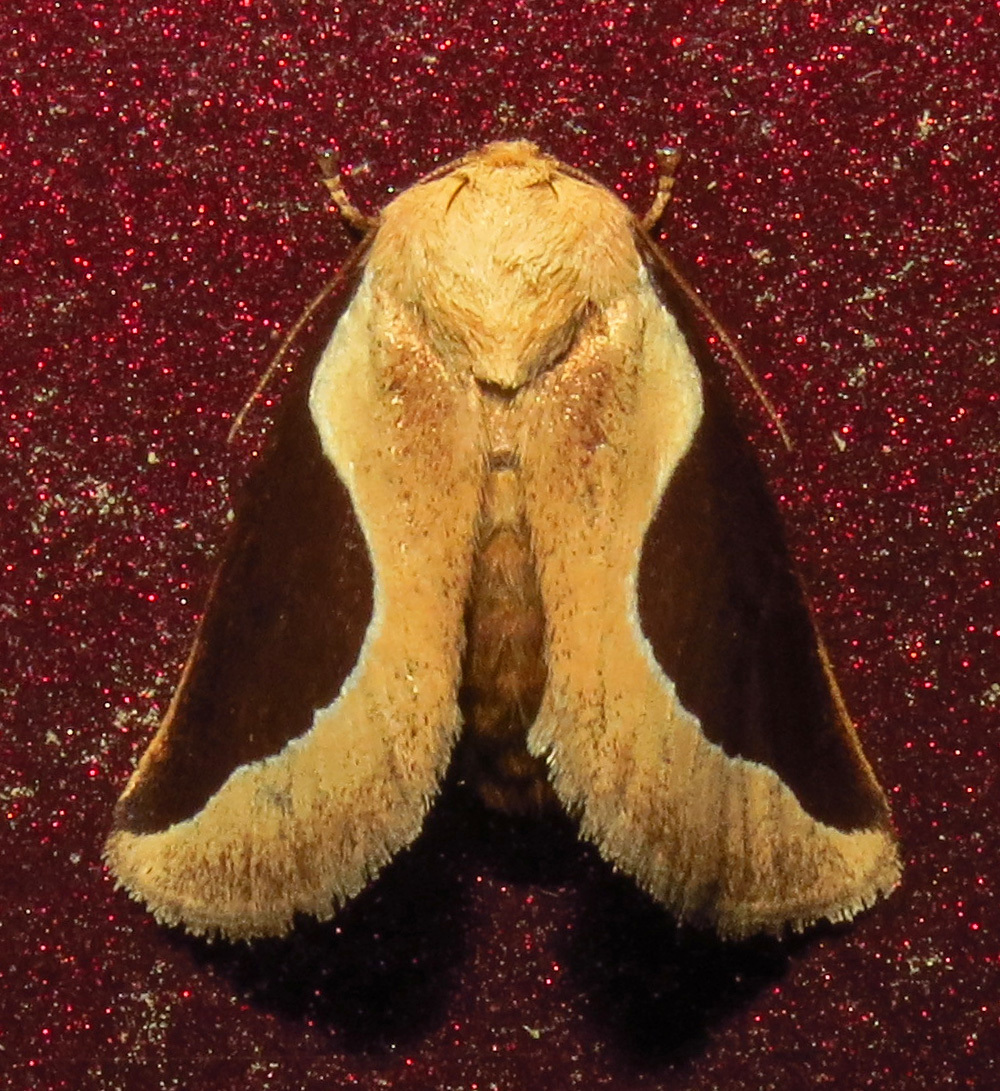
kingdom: Animalia
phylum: Arthropoda
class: Insecta
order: Lepidoptera
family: Limacodidae
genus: Prolimacodes
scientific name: Prolimacodes badia
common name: Skiff moth
